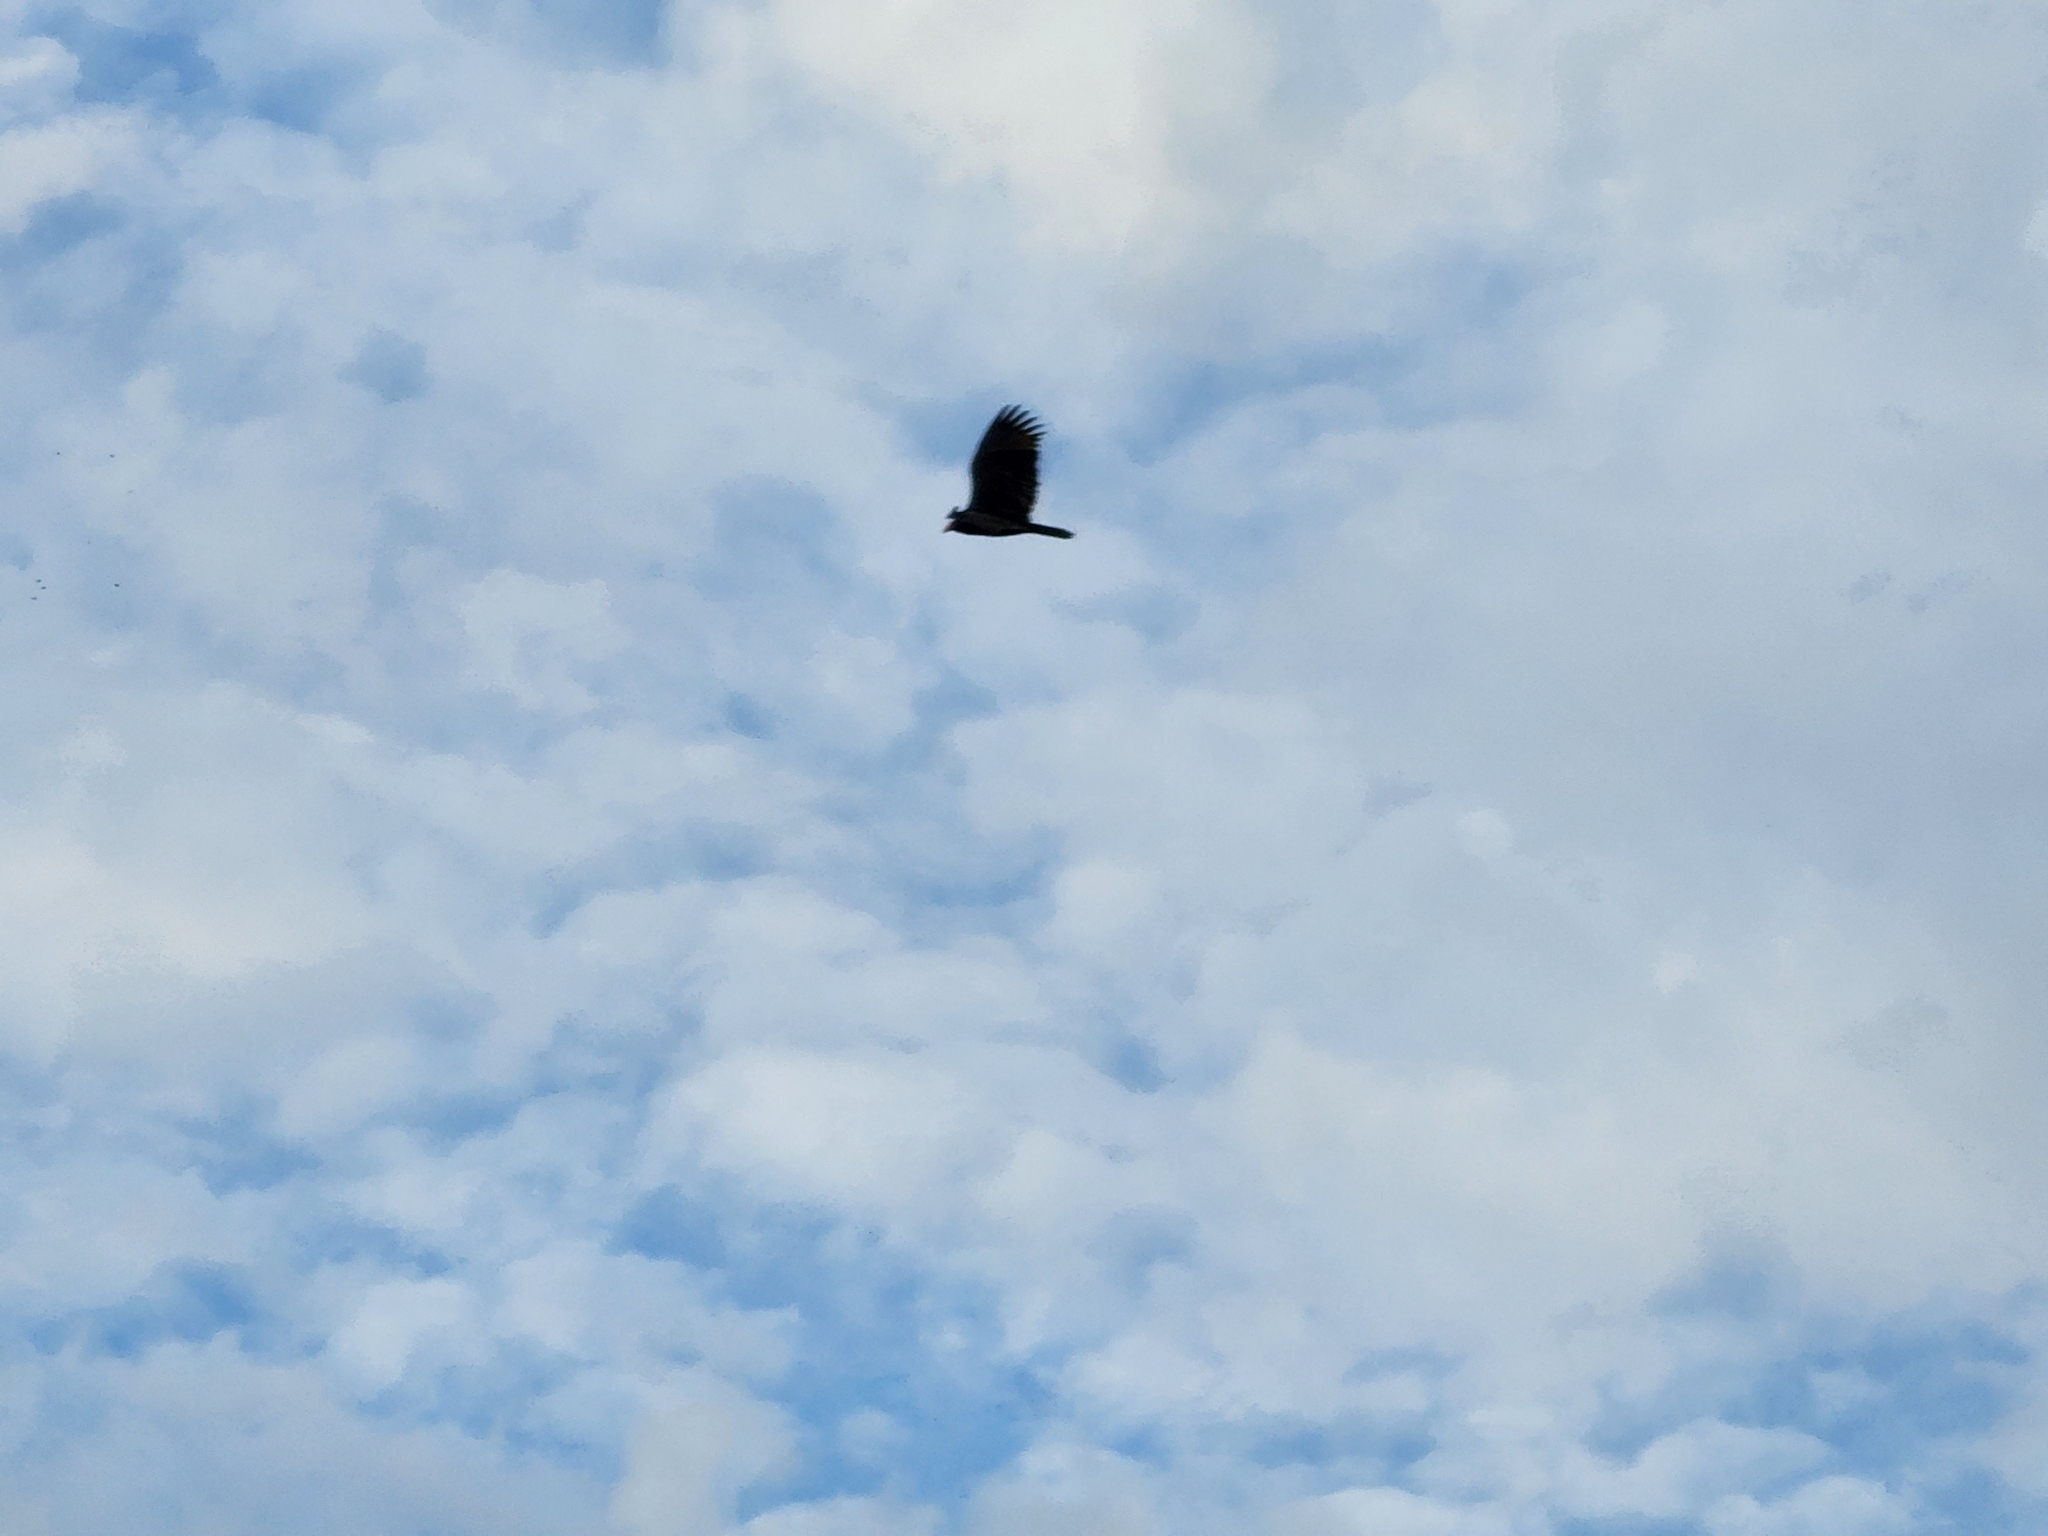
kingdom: Animalia
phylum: Chordata
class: Aves
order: Accipitriformes
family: Cathartidae
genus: Cathartes
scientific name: Cathartes aura
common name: Turkey vulture
